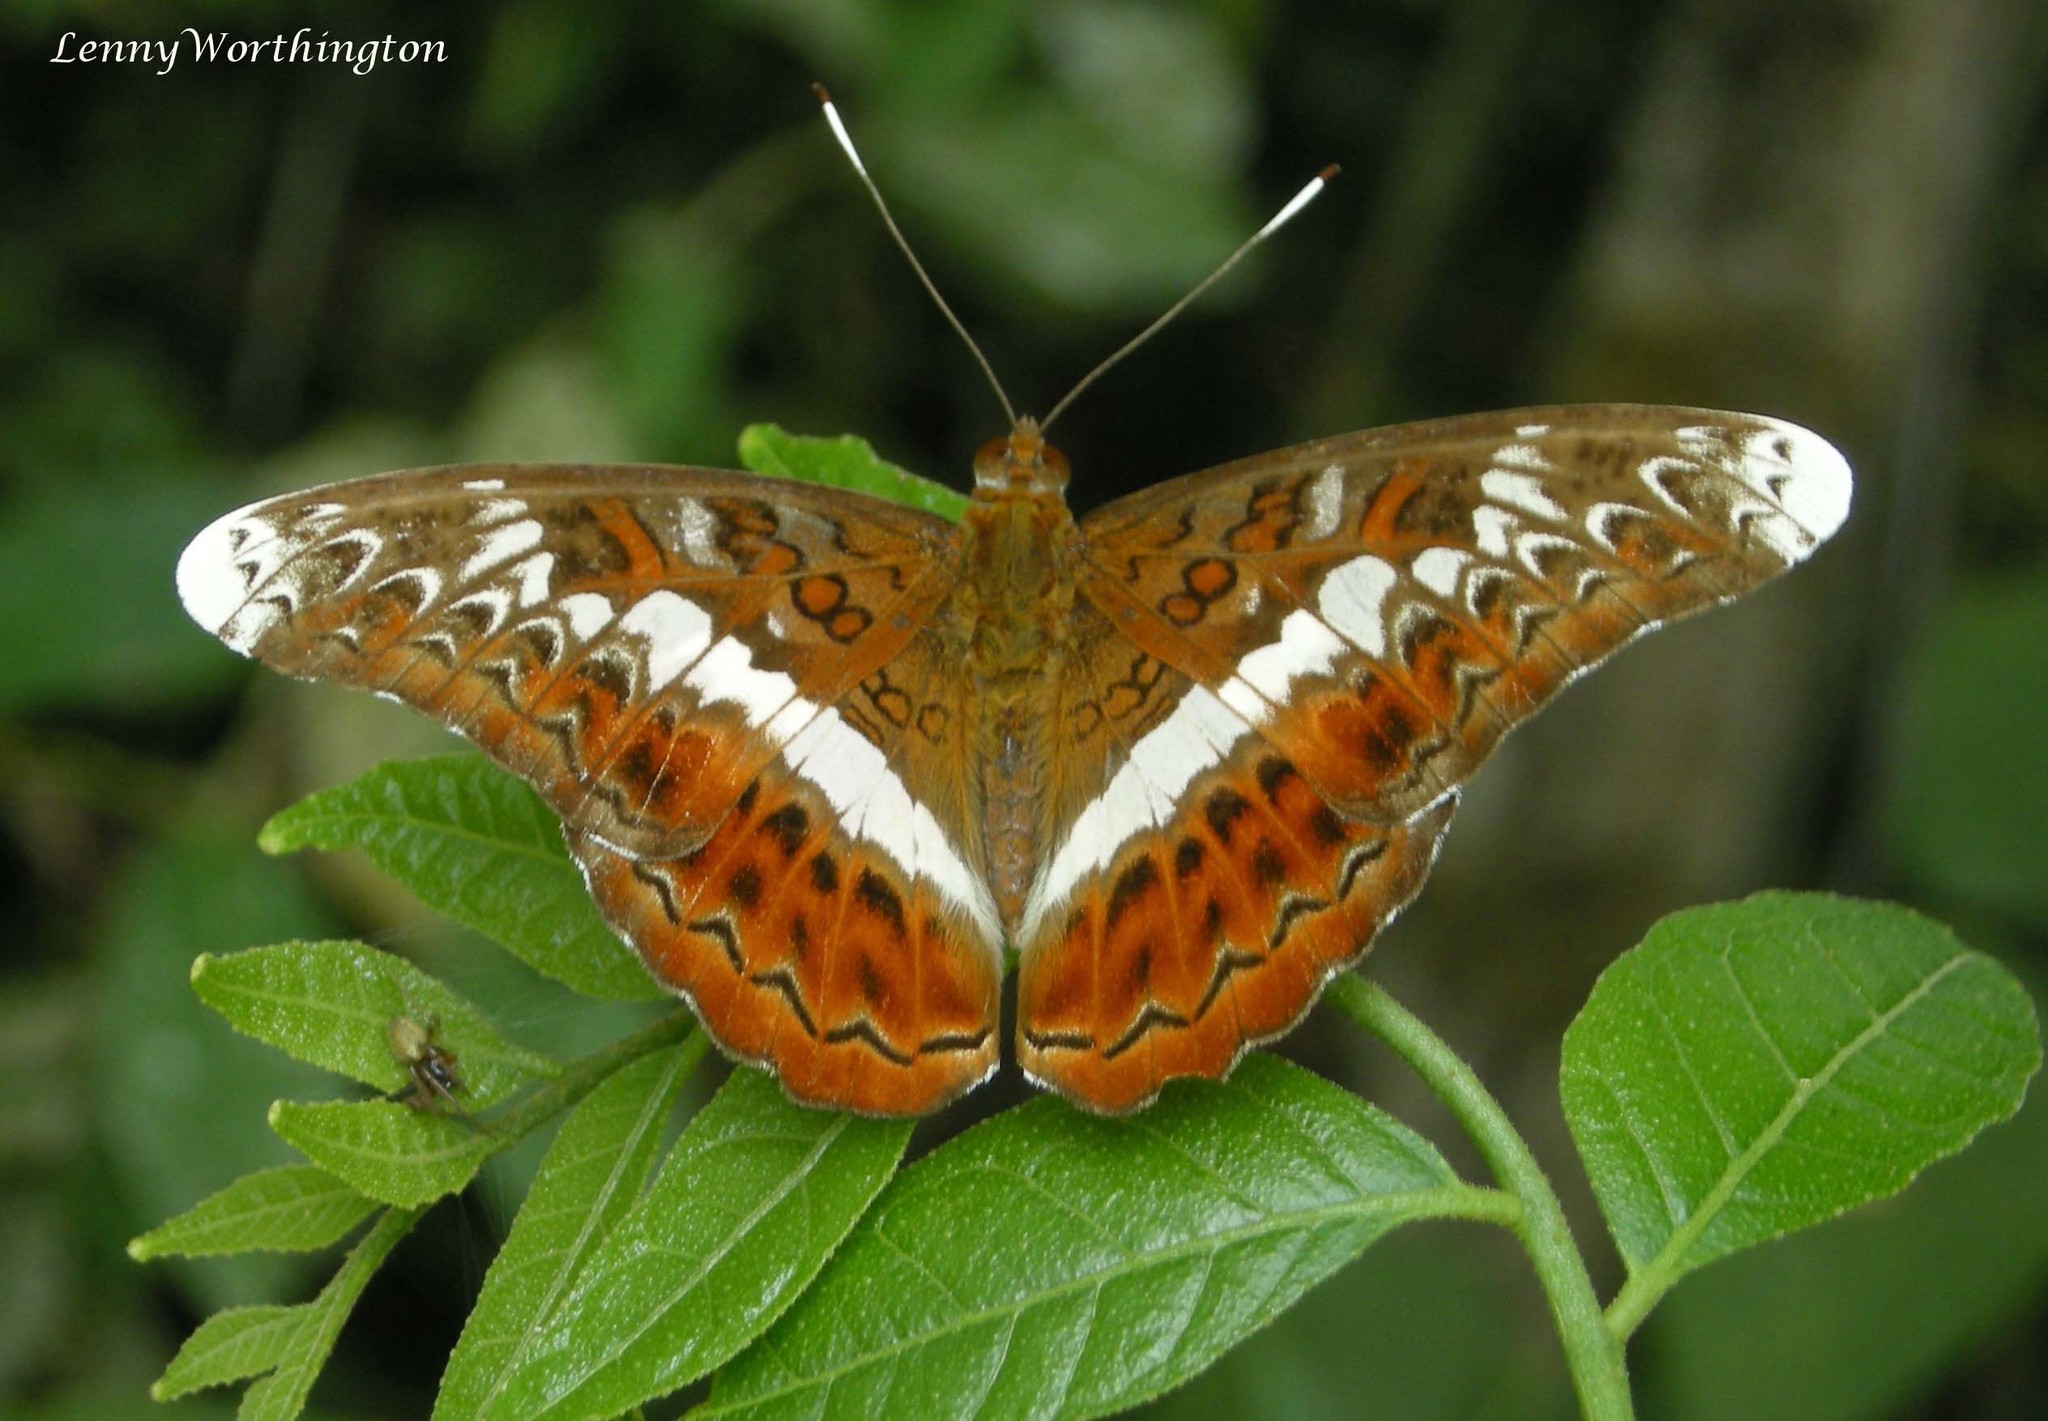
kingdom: Animalia
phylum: Arthropoda
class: Insecta
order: Lepidoptera
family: Nymphalidae
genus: Lebadea
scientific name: Lebadea martha
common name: Knight
